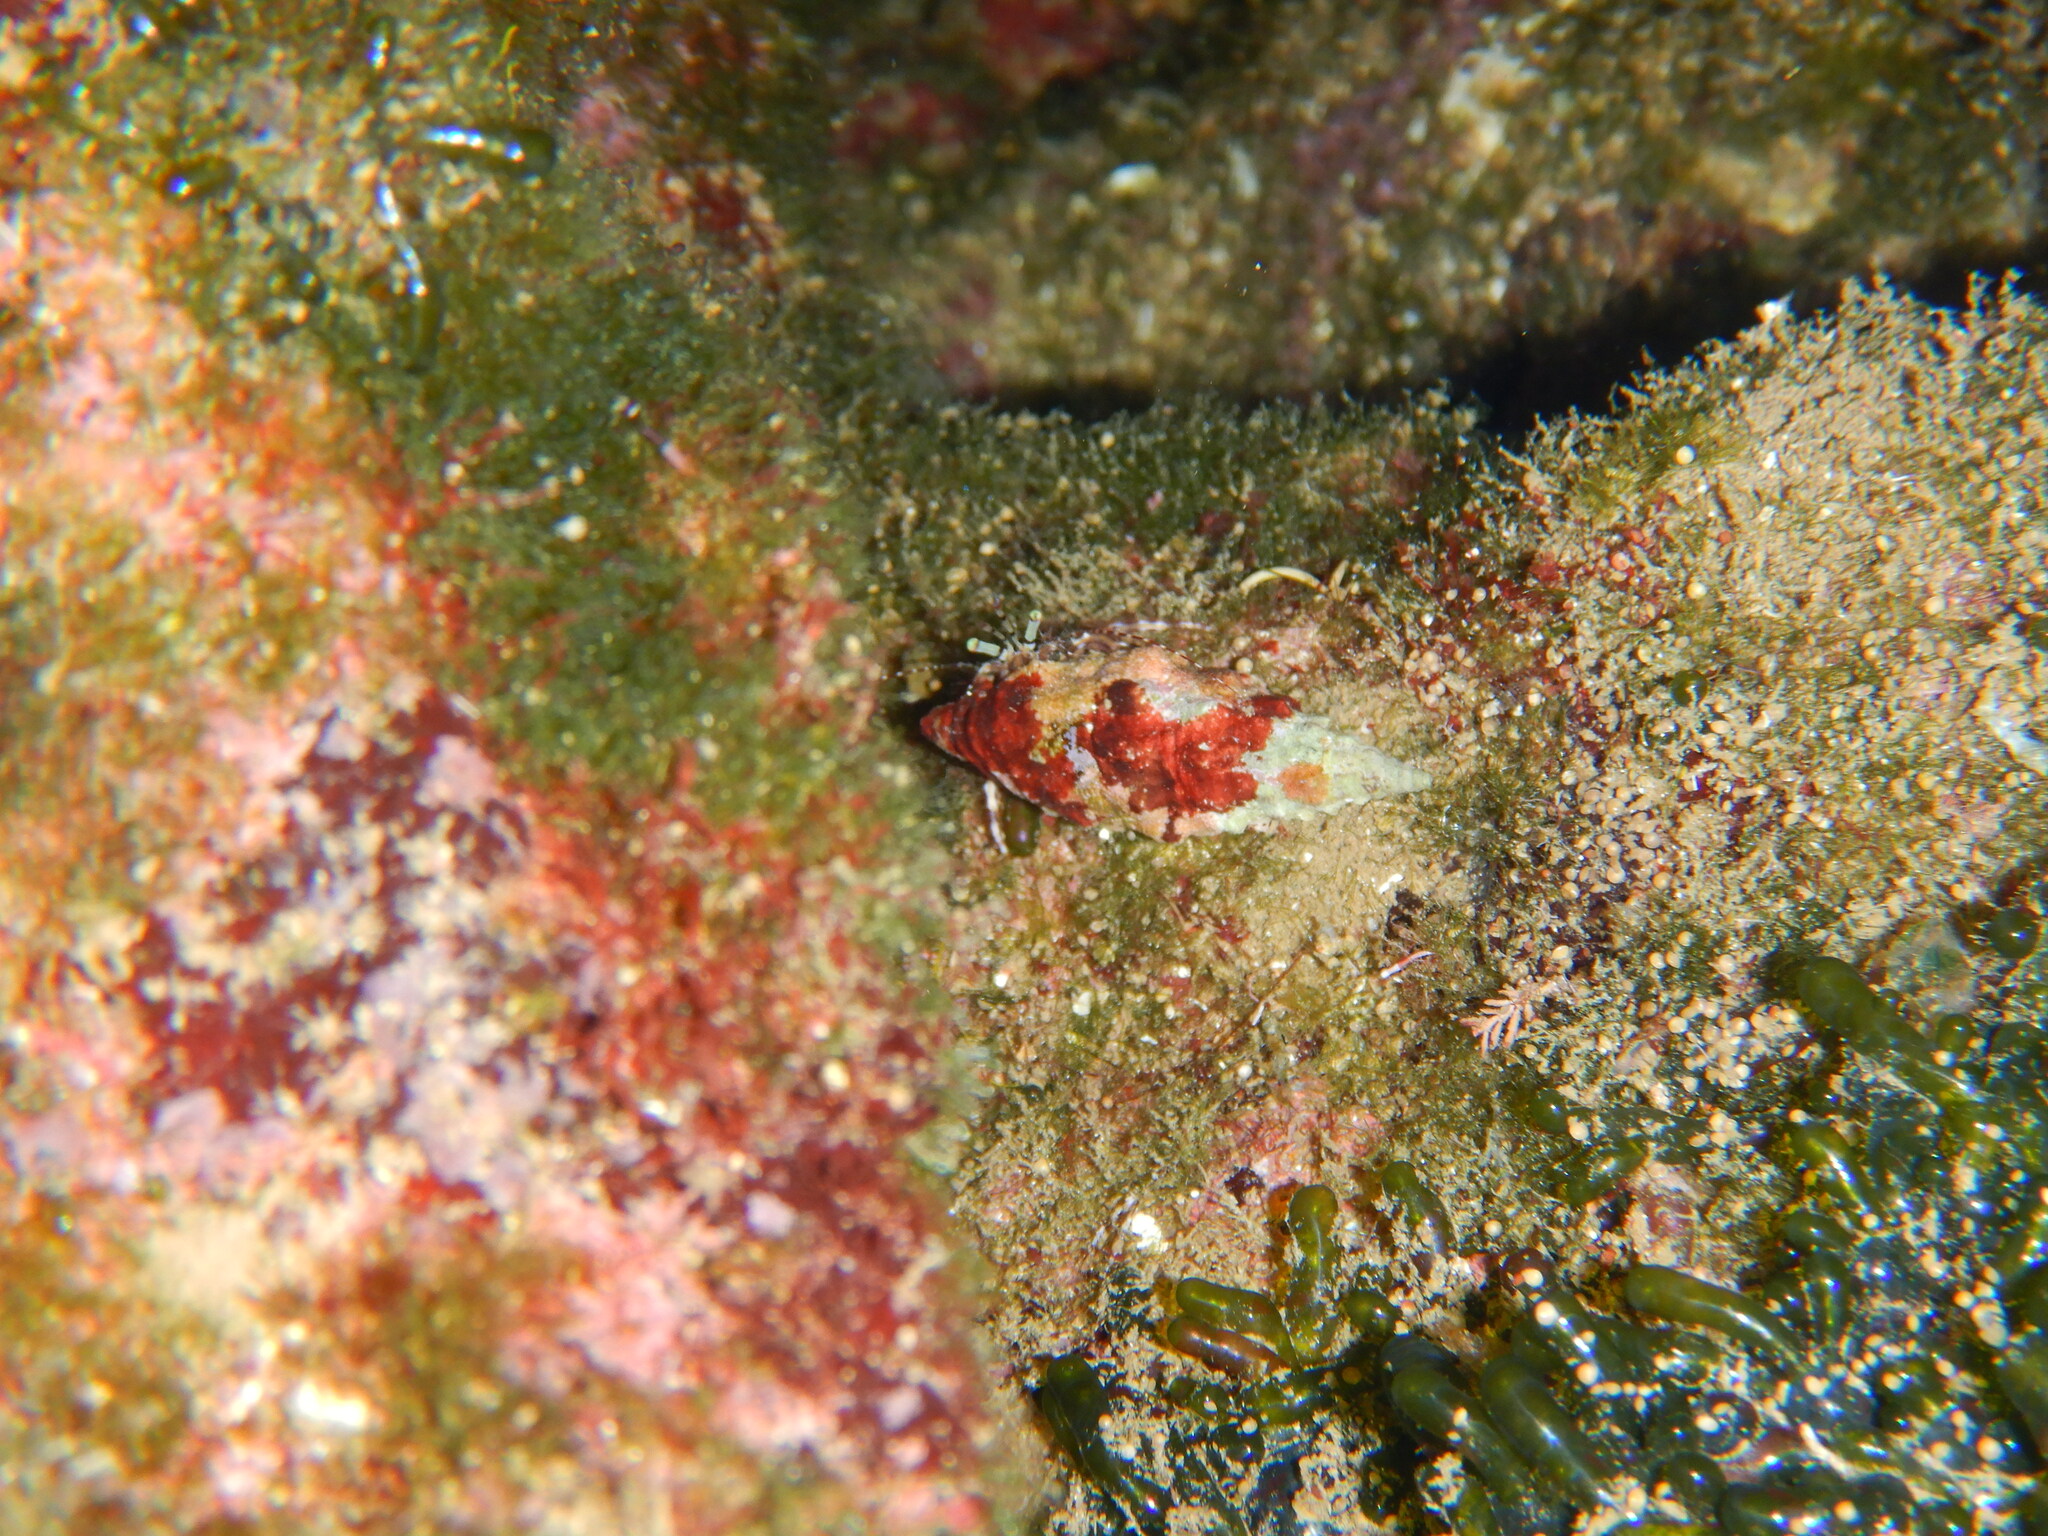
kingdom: Animalia
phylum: Arthropoda
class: Malacostraca
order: Decapoda
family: Paguridae
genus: Pagurus
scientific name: Pagurus anachoretus
